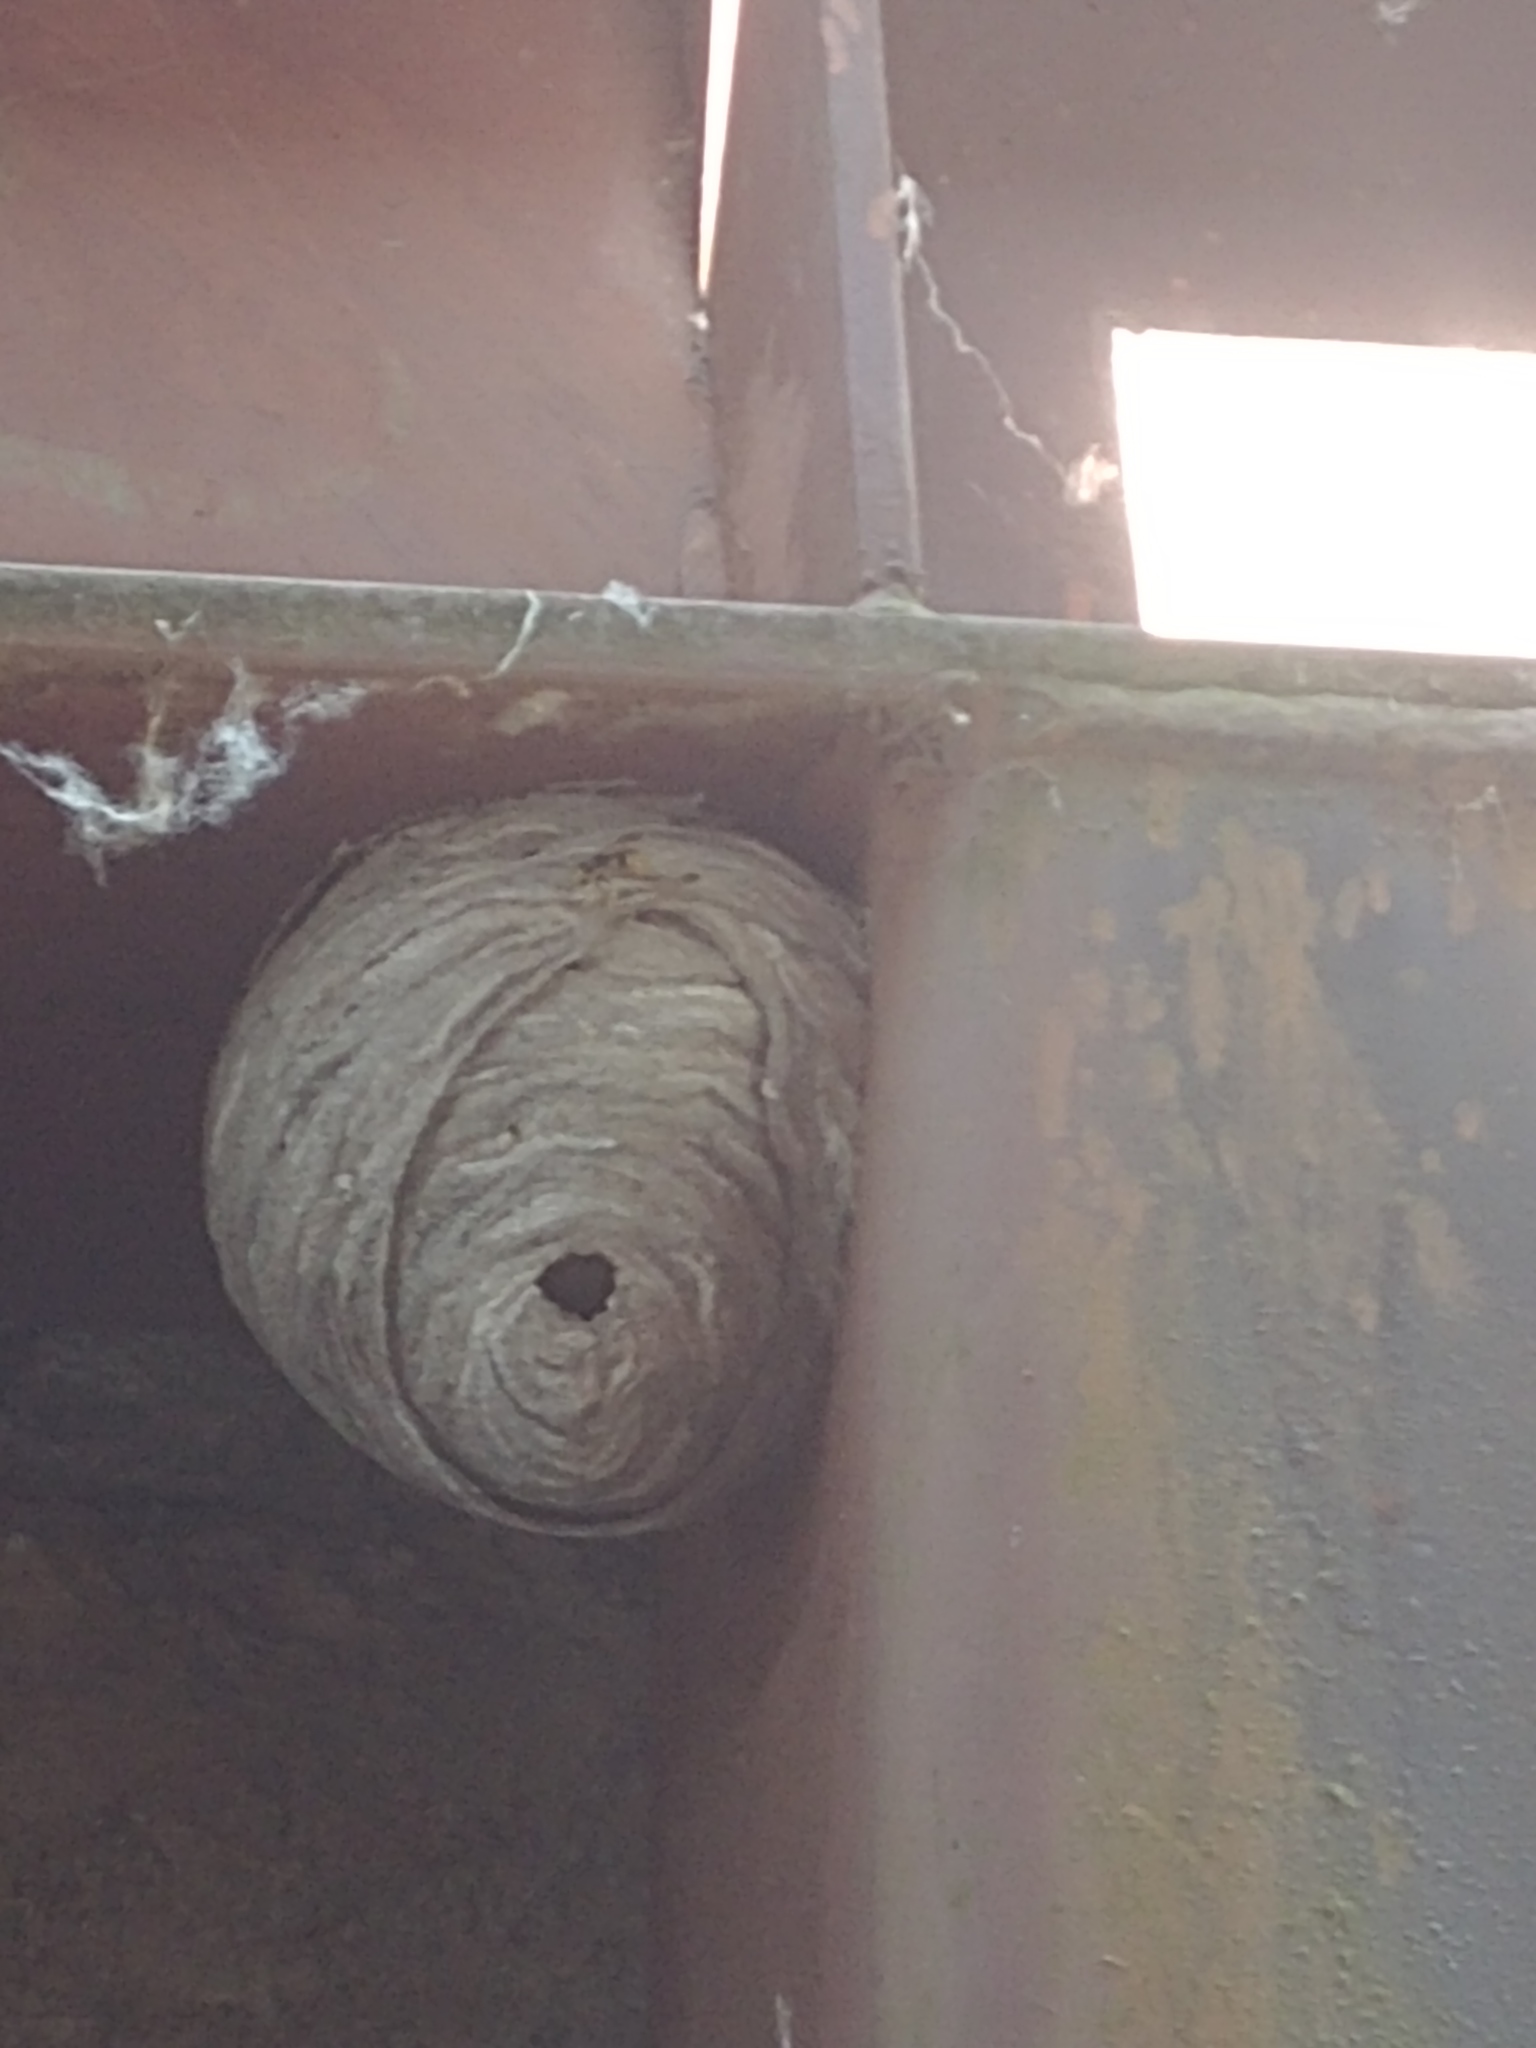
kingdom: Animalia
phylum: Arthropoda
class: Insecta
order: Hymenoptera
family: Vespidae
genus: Dolichovespula
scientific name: Dolichovespula
